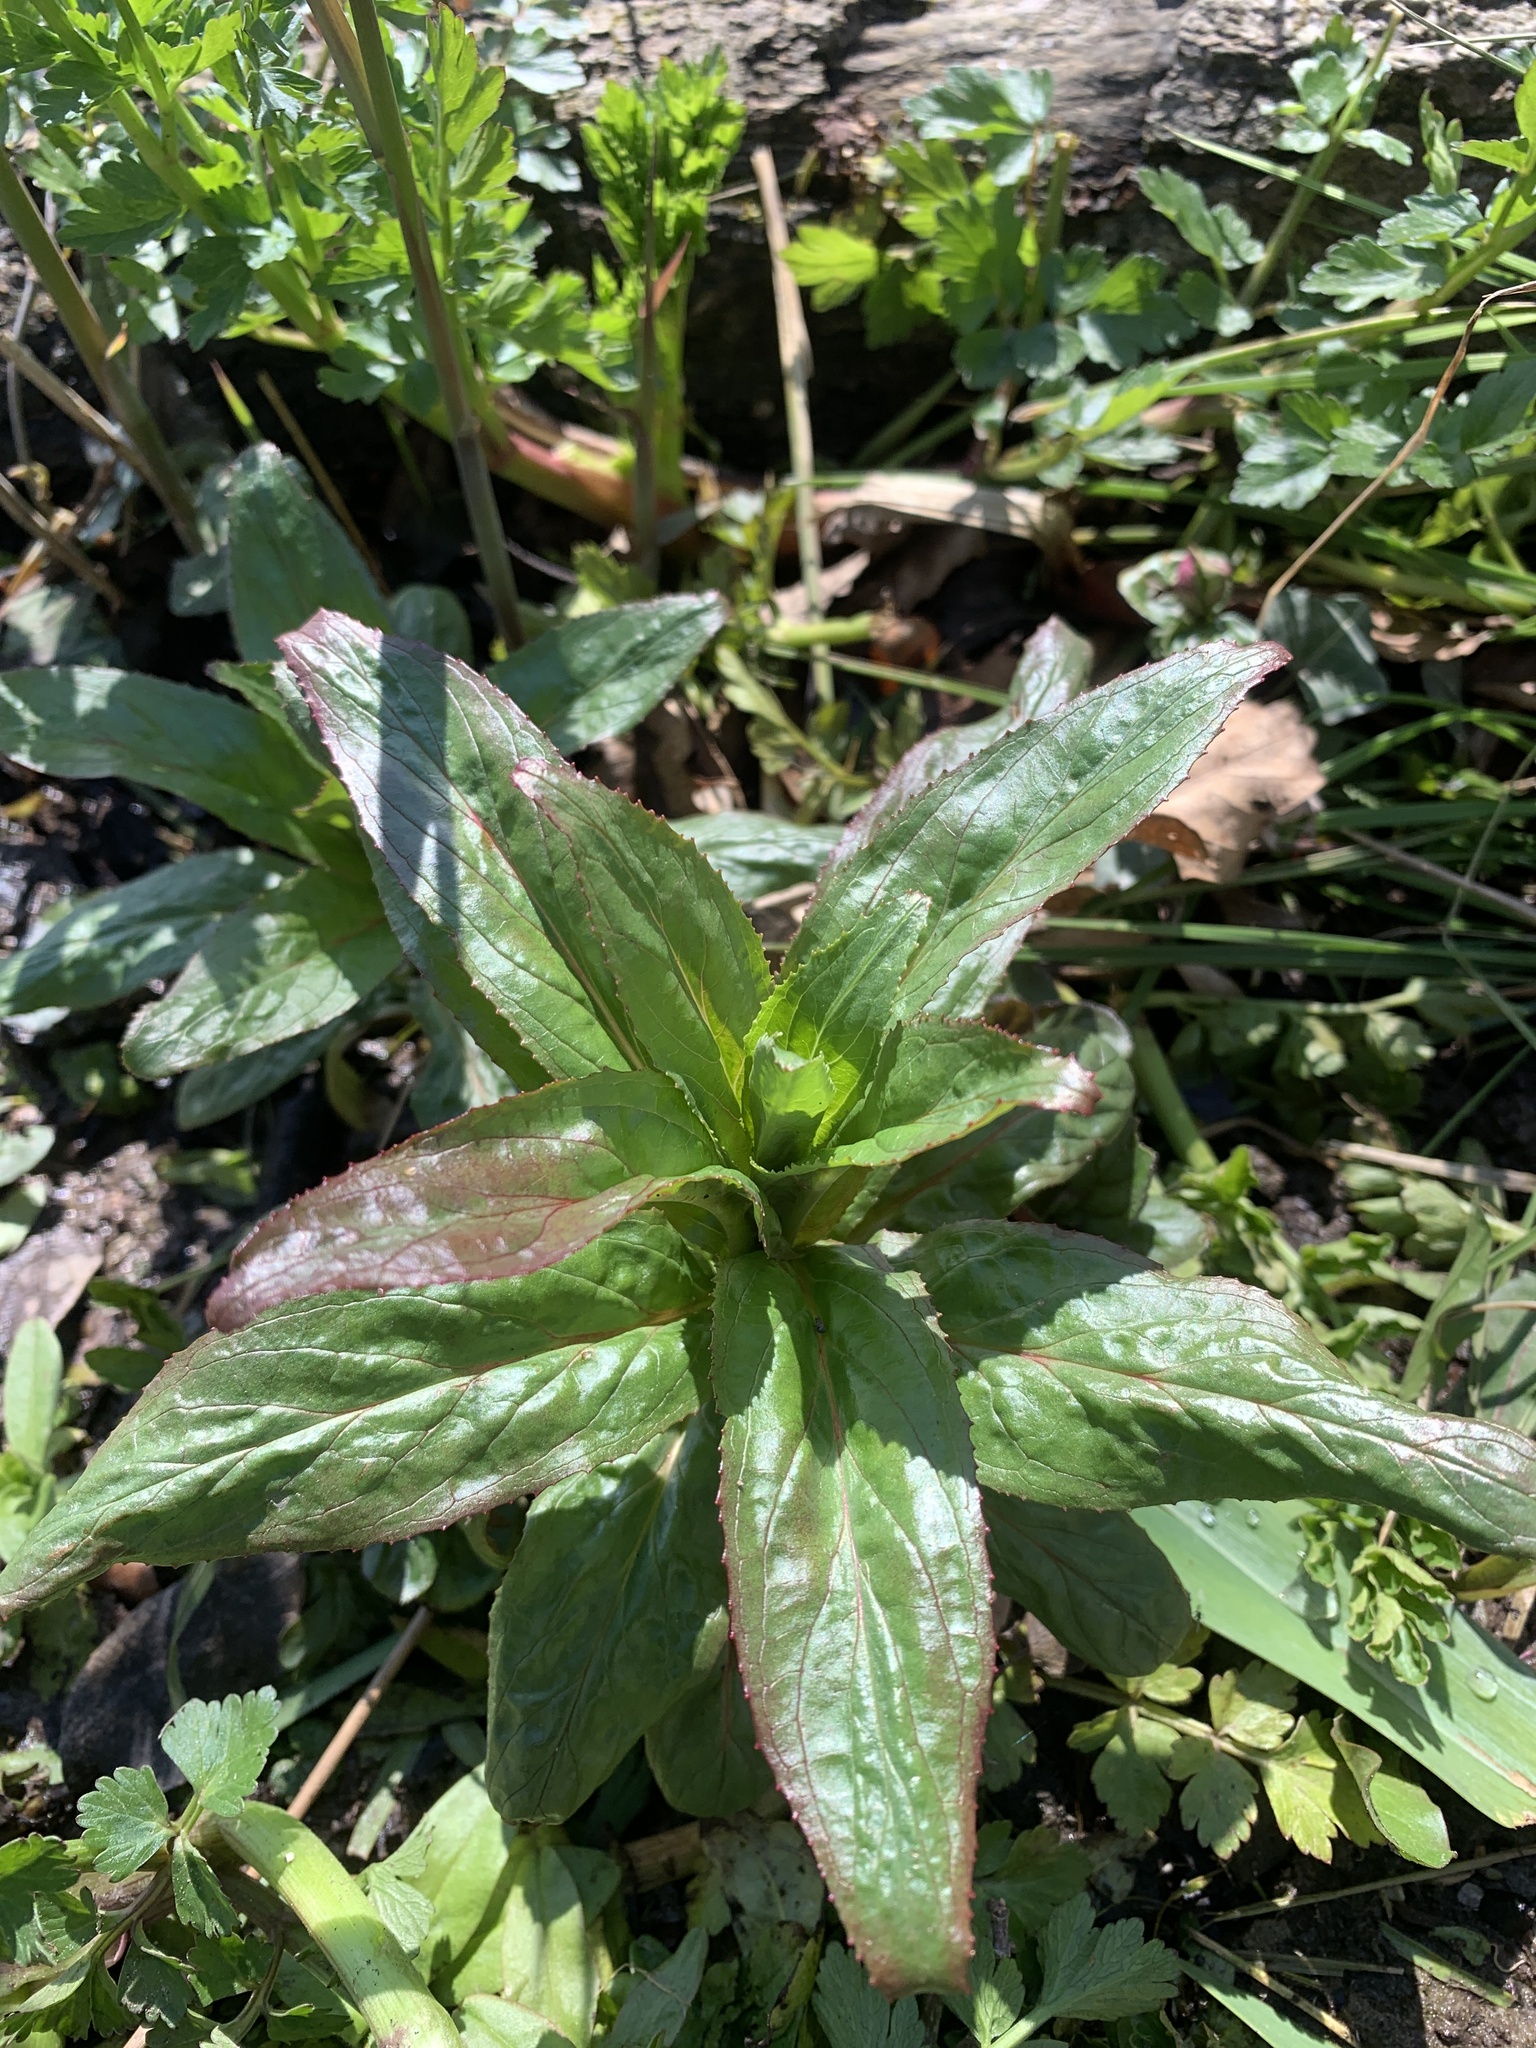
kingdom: Plantae
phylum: Tracheophyta
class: Magnoliopsida
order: Myrtales
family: Onagraceae
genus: Epilobium
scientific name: Epilobium ciliatum
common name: American willowherb
